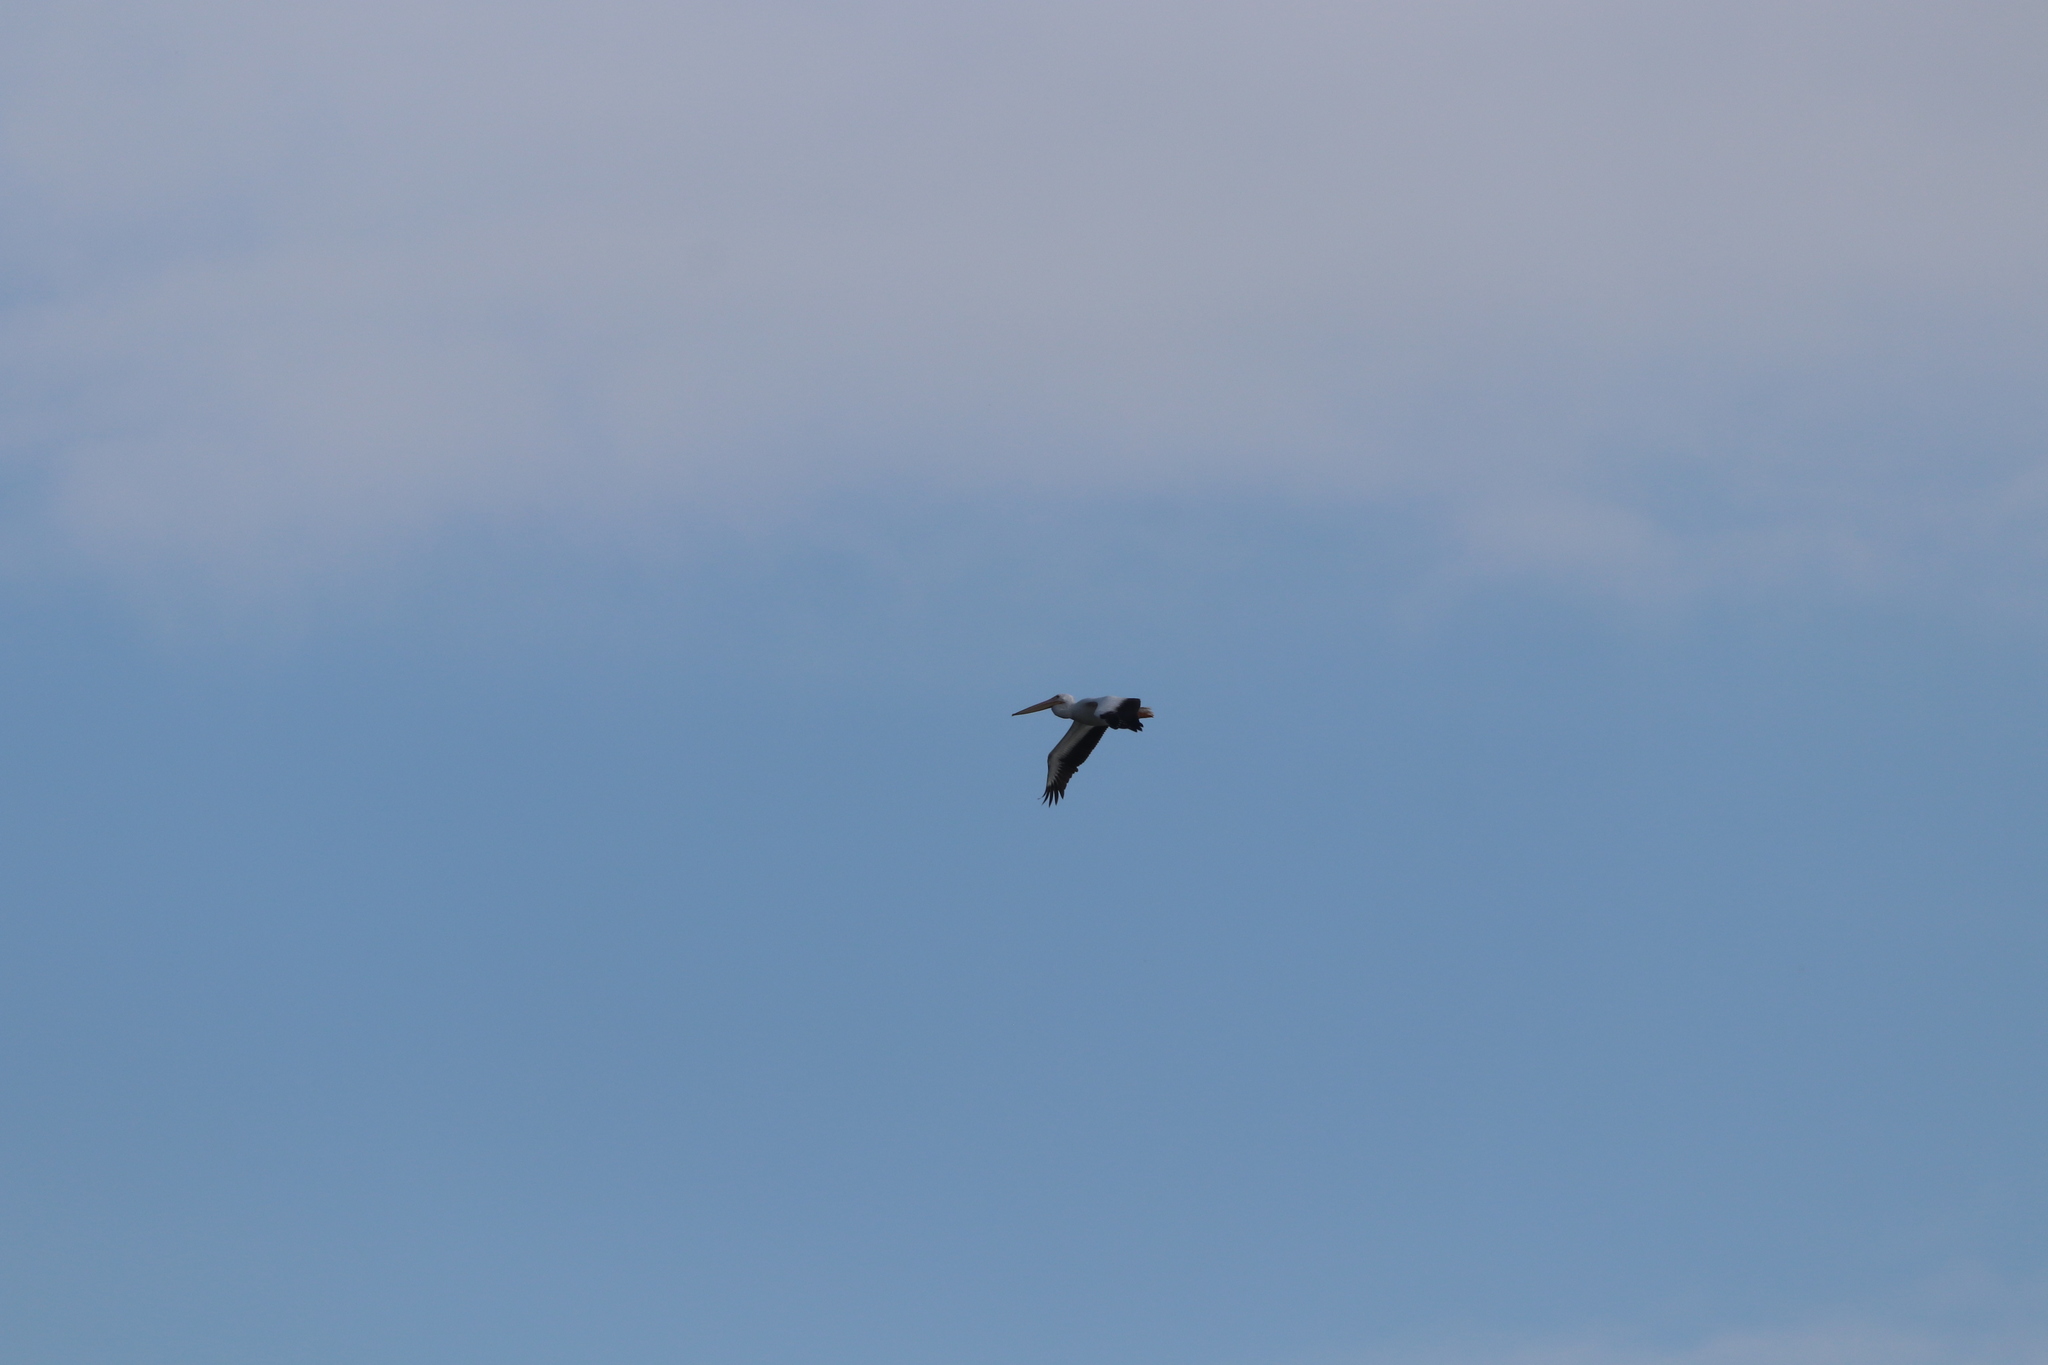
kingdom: Animalia
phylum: Chordata
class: Aves
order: Pelecaniformes
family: Pelecanidae
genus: Pelecanus
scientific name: Pelecanus erythrorhynchos
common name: American white pelican
